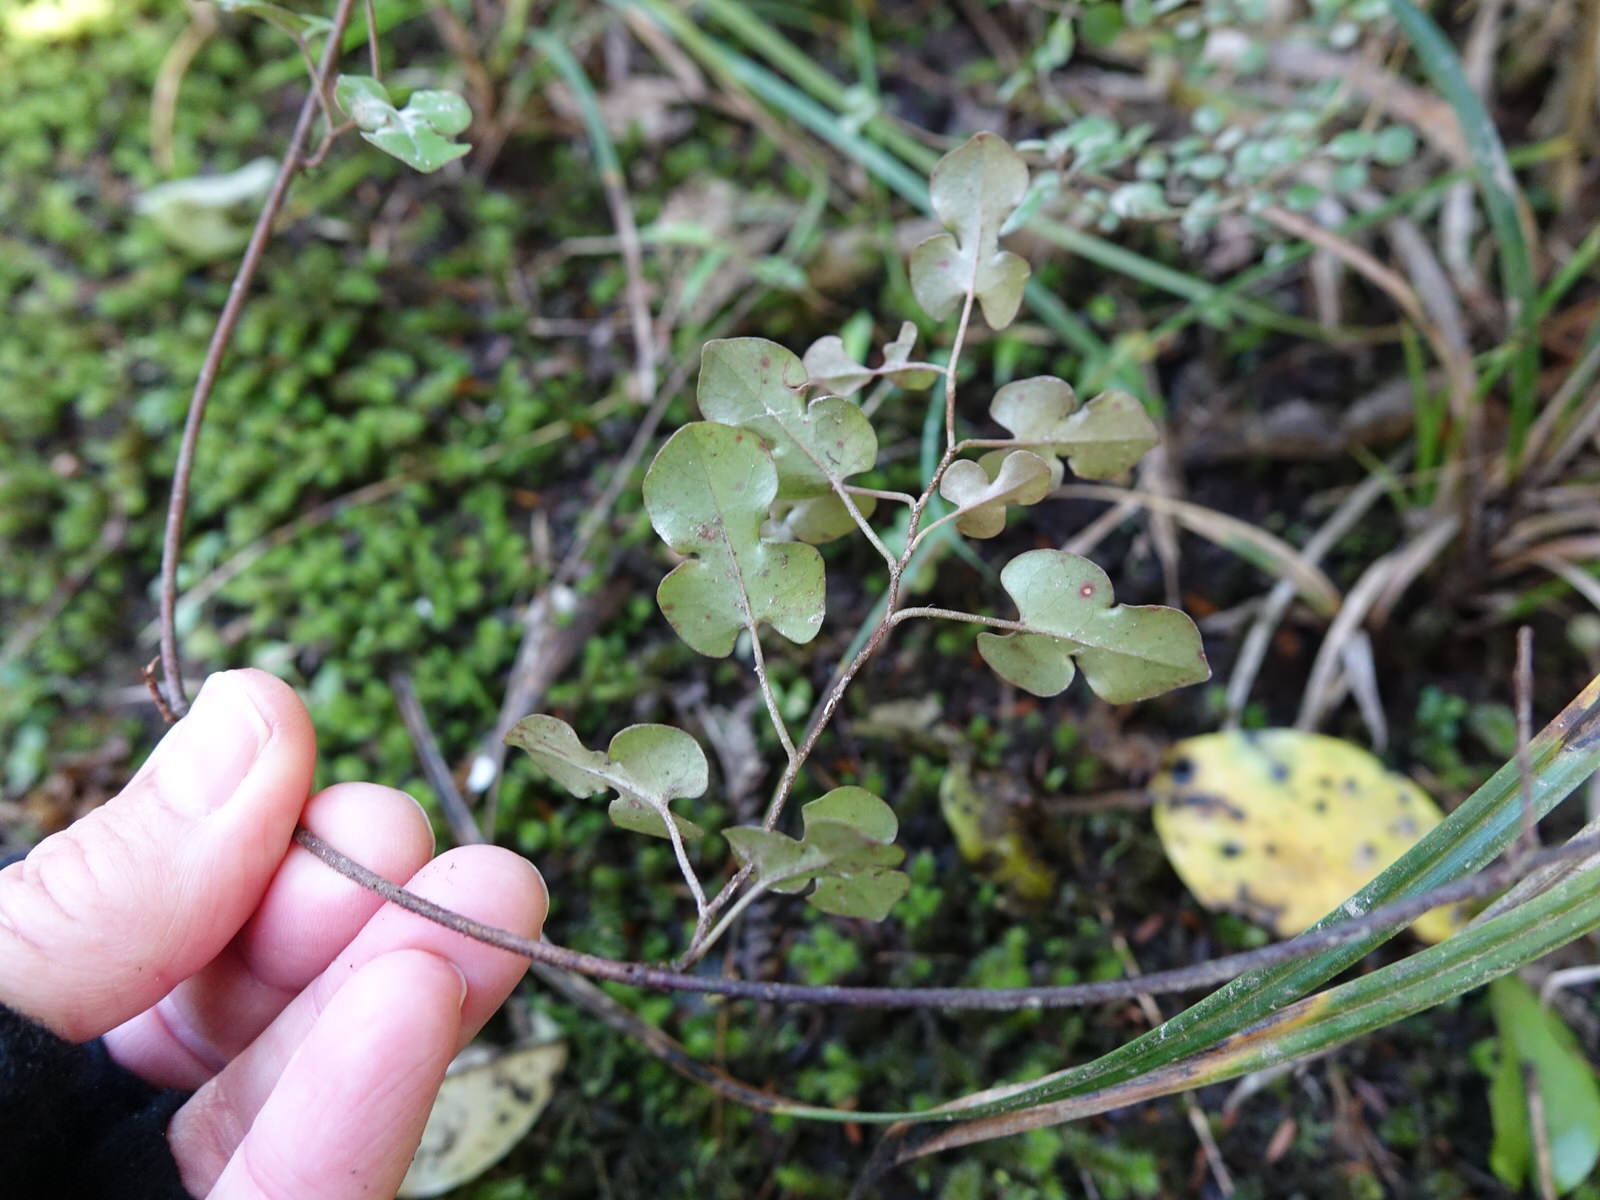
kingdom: Plantae
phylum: Tracheophyta
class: Magnoliopsida
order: Caryophyllales
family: Polygonaceae
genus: Muehlenbeckia
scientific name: Muehlenbeckia australis
